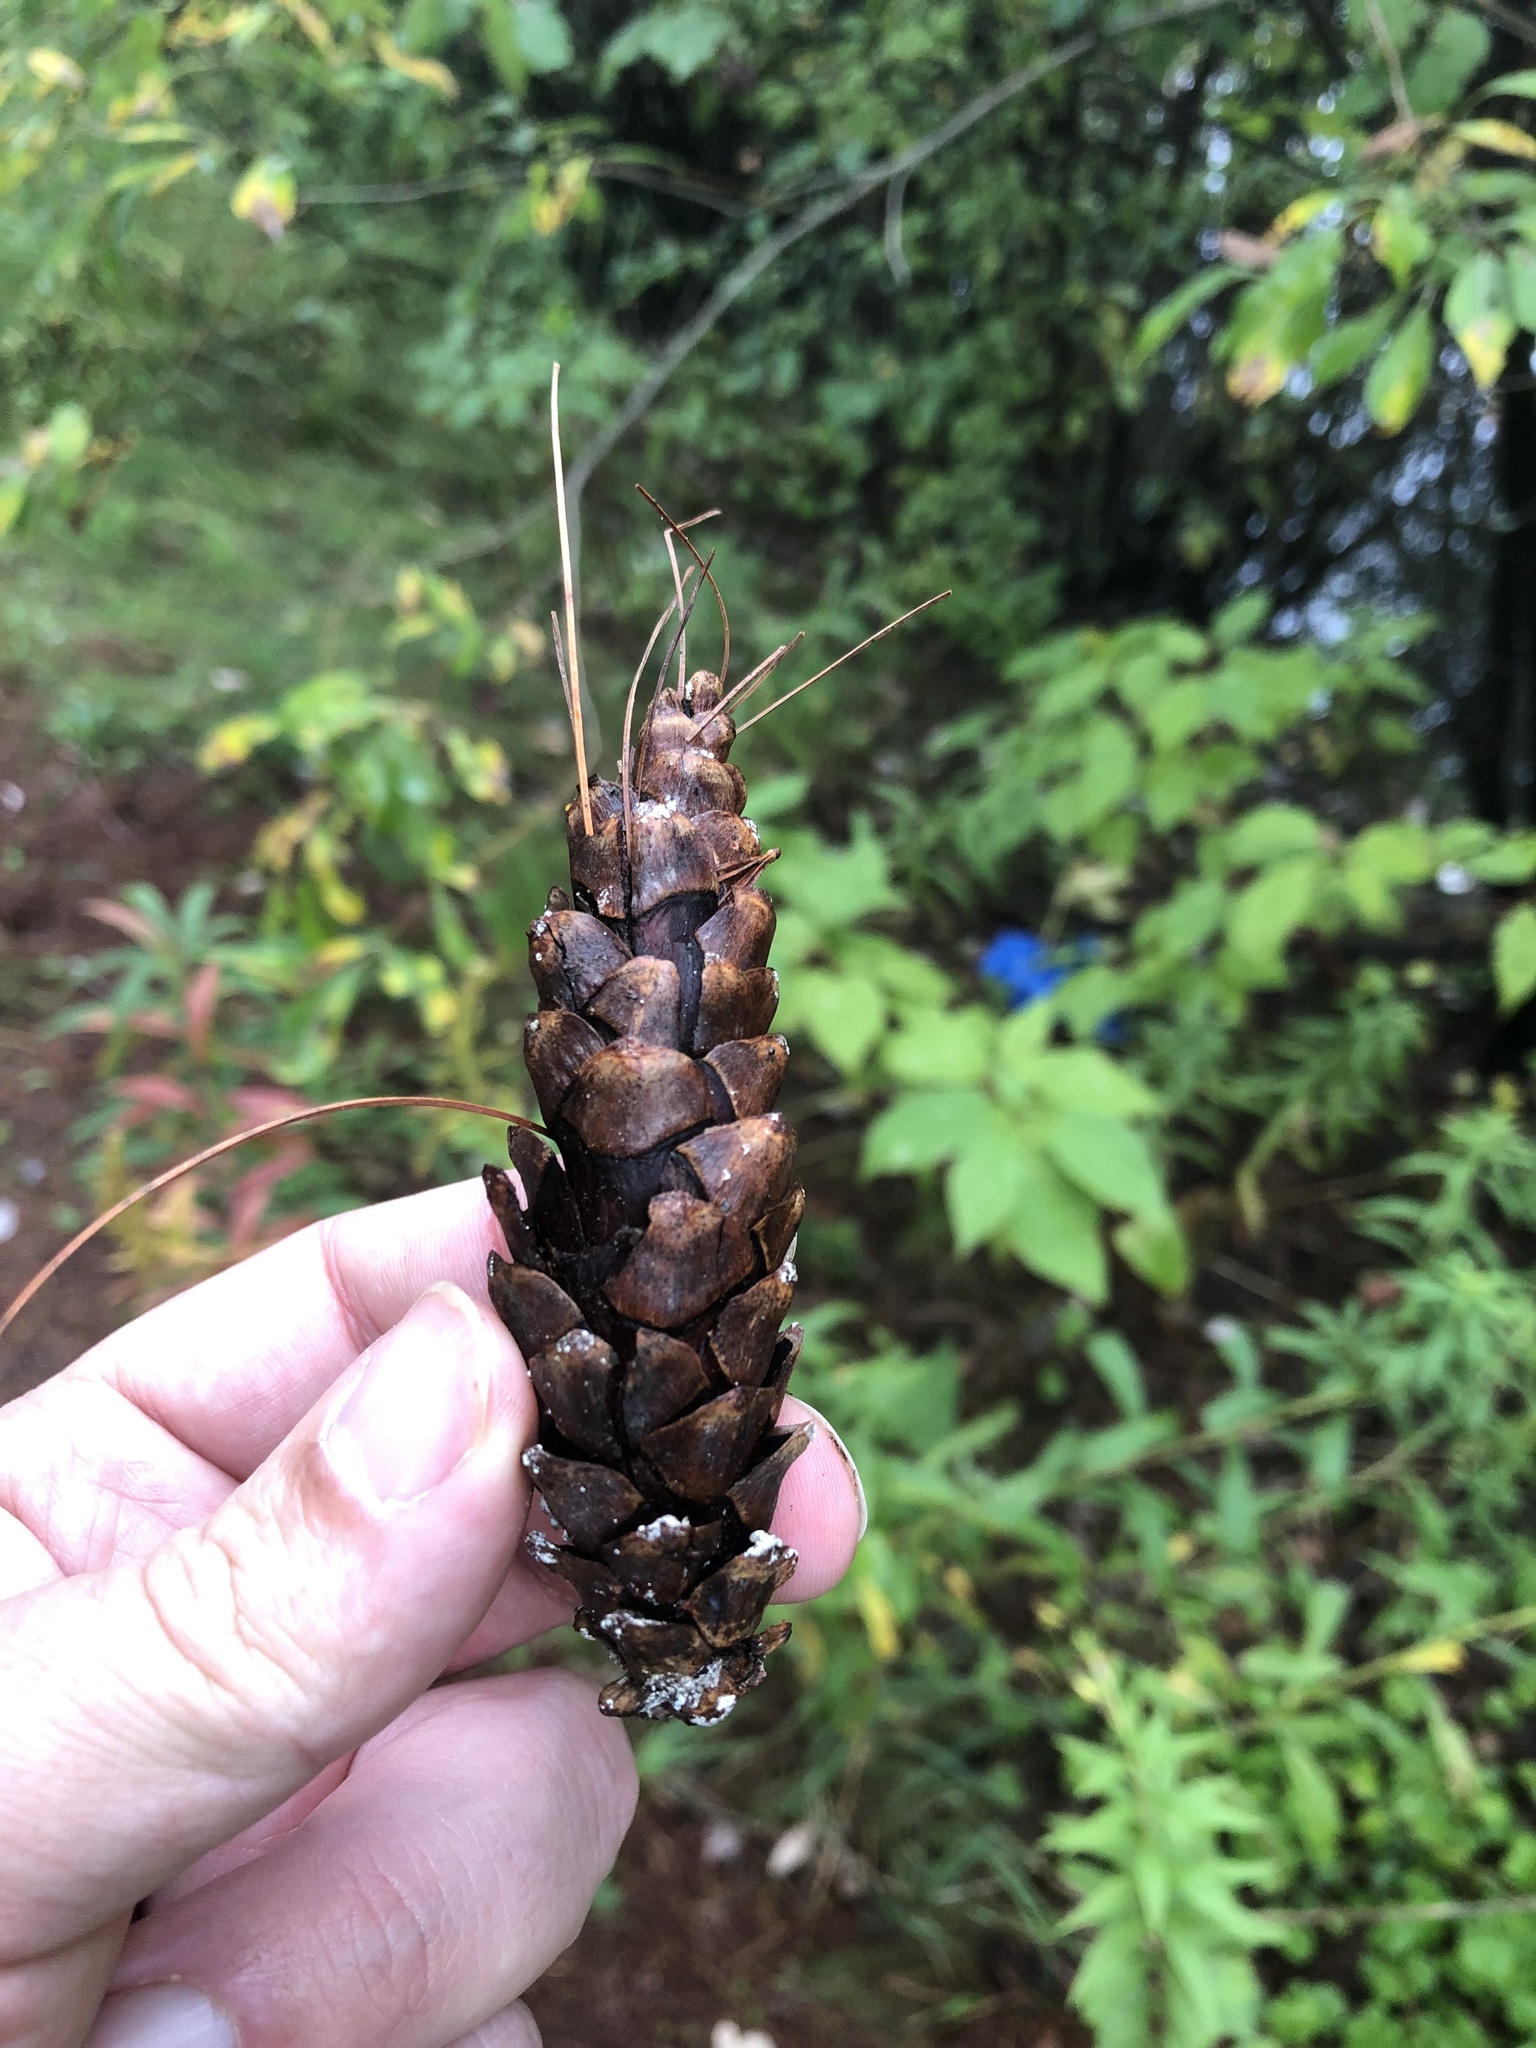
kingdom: Plantae
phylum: Tracheophyta
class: Pinopsida
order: Pinales
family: Pinaceae
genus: Pinus
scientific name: Pinus strobus
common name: Weymouth pine
